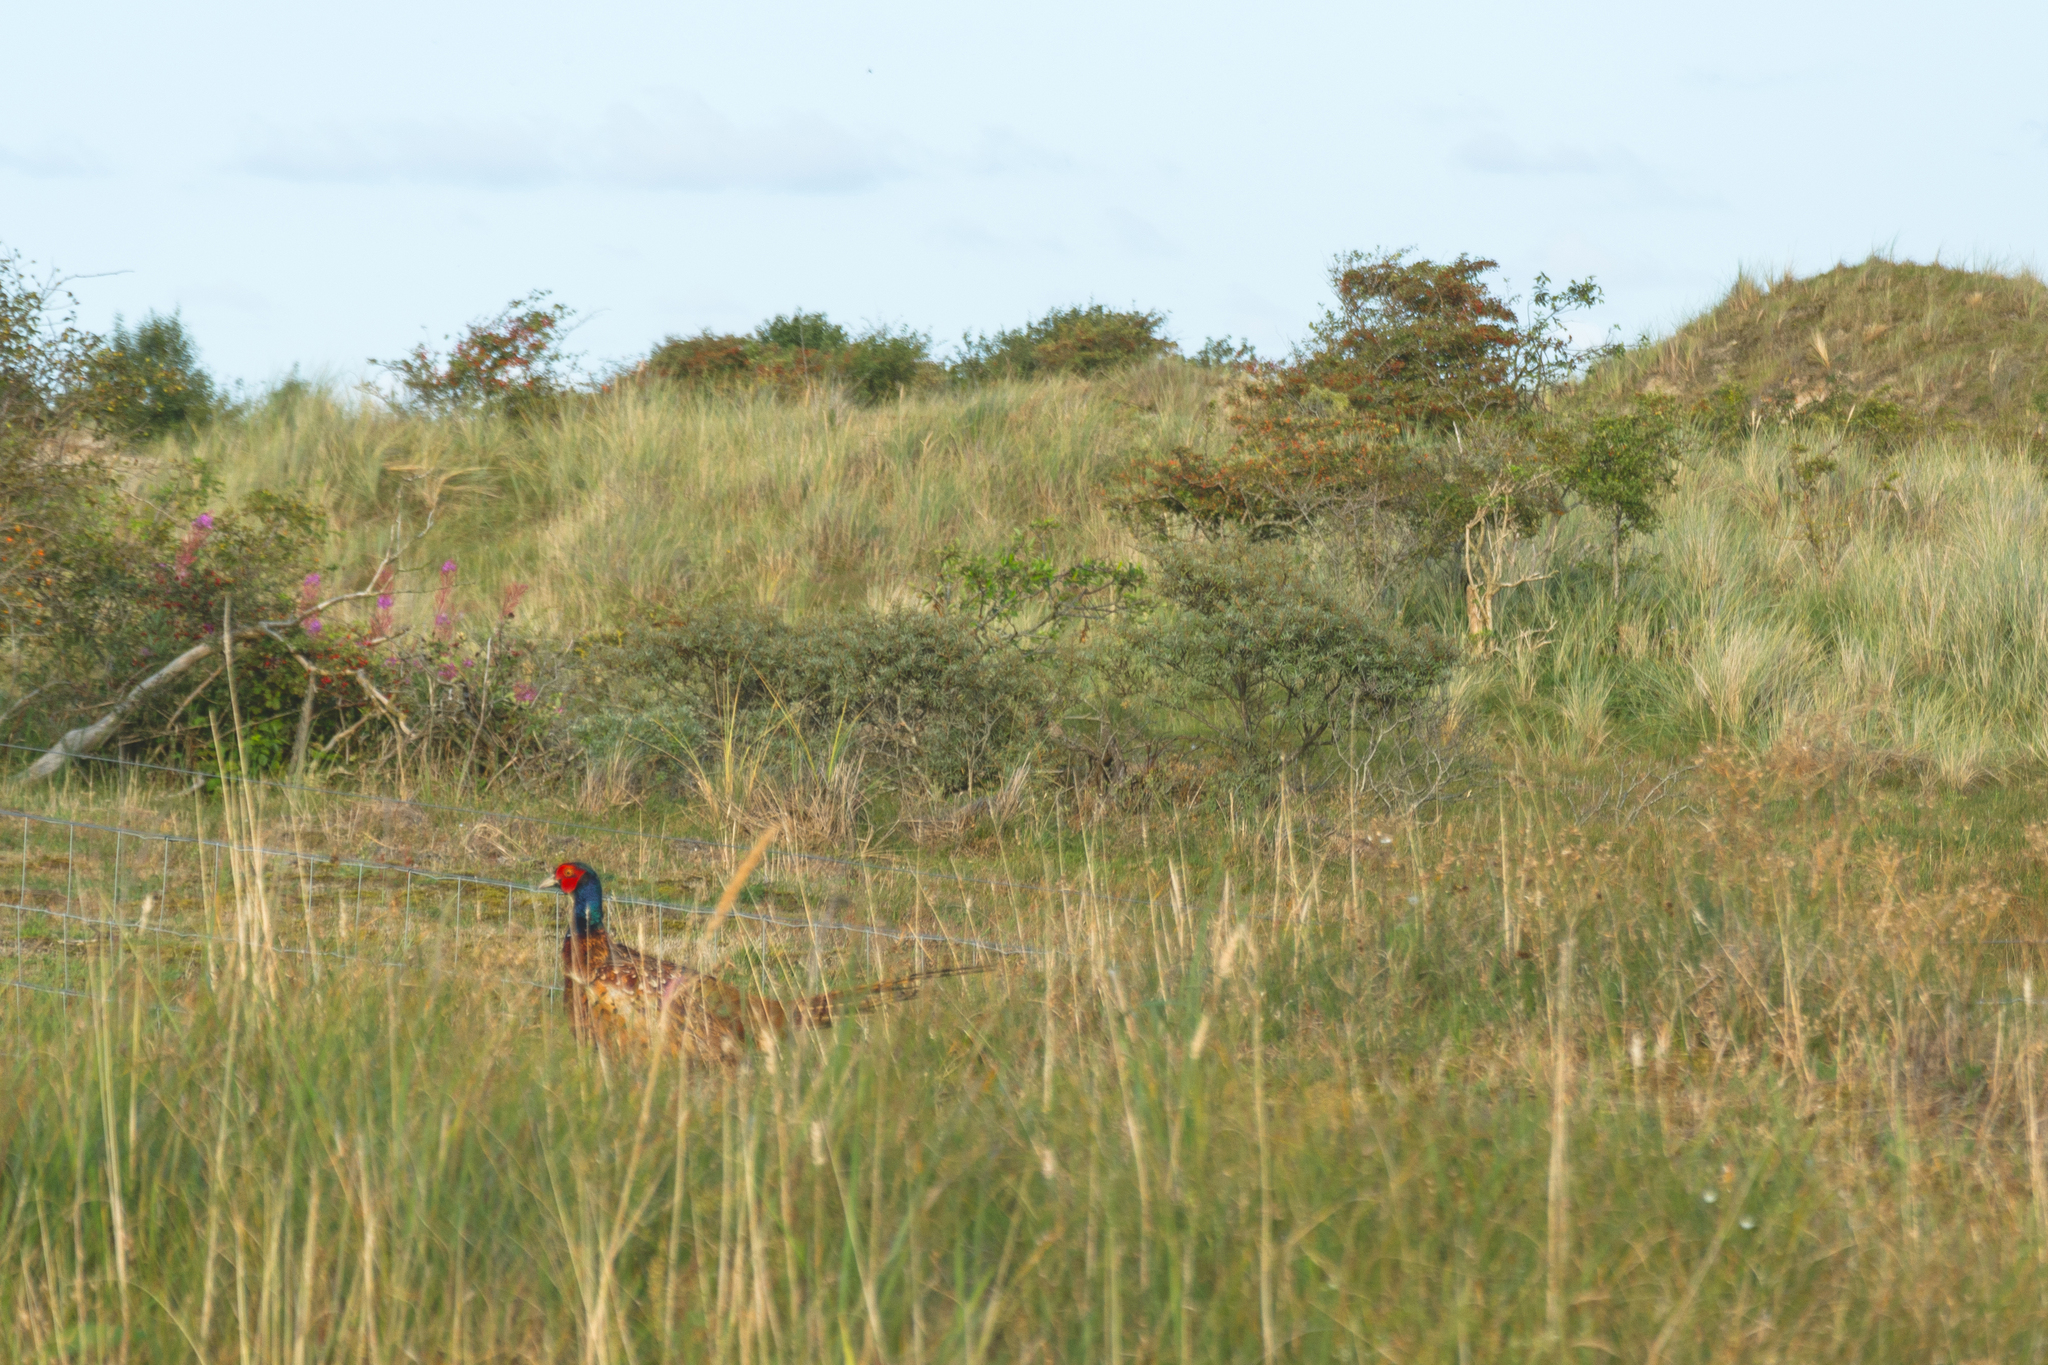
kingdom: Animalia
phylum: Chordata
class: Aves
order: Galliformes
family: Phasianidae
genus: Phasianus
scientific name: Phasianus colchicus
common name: Common pheasant
